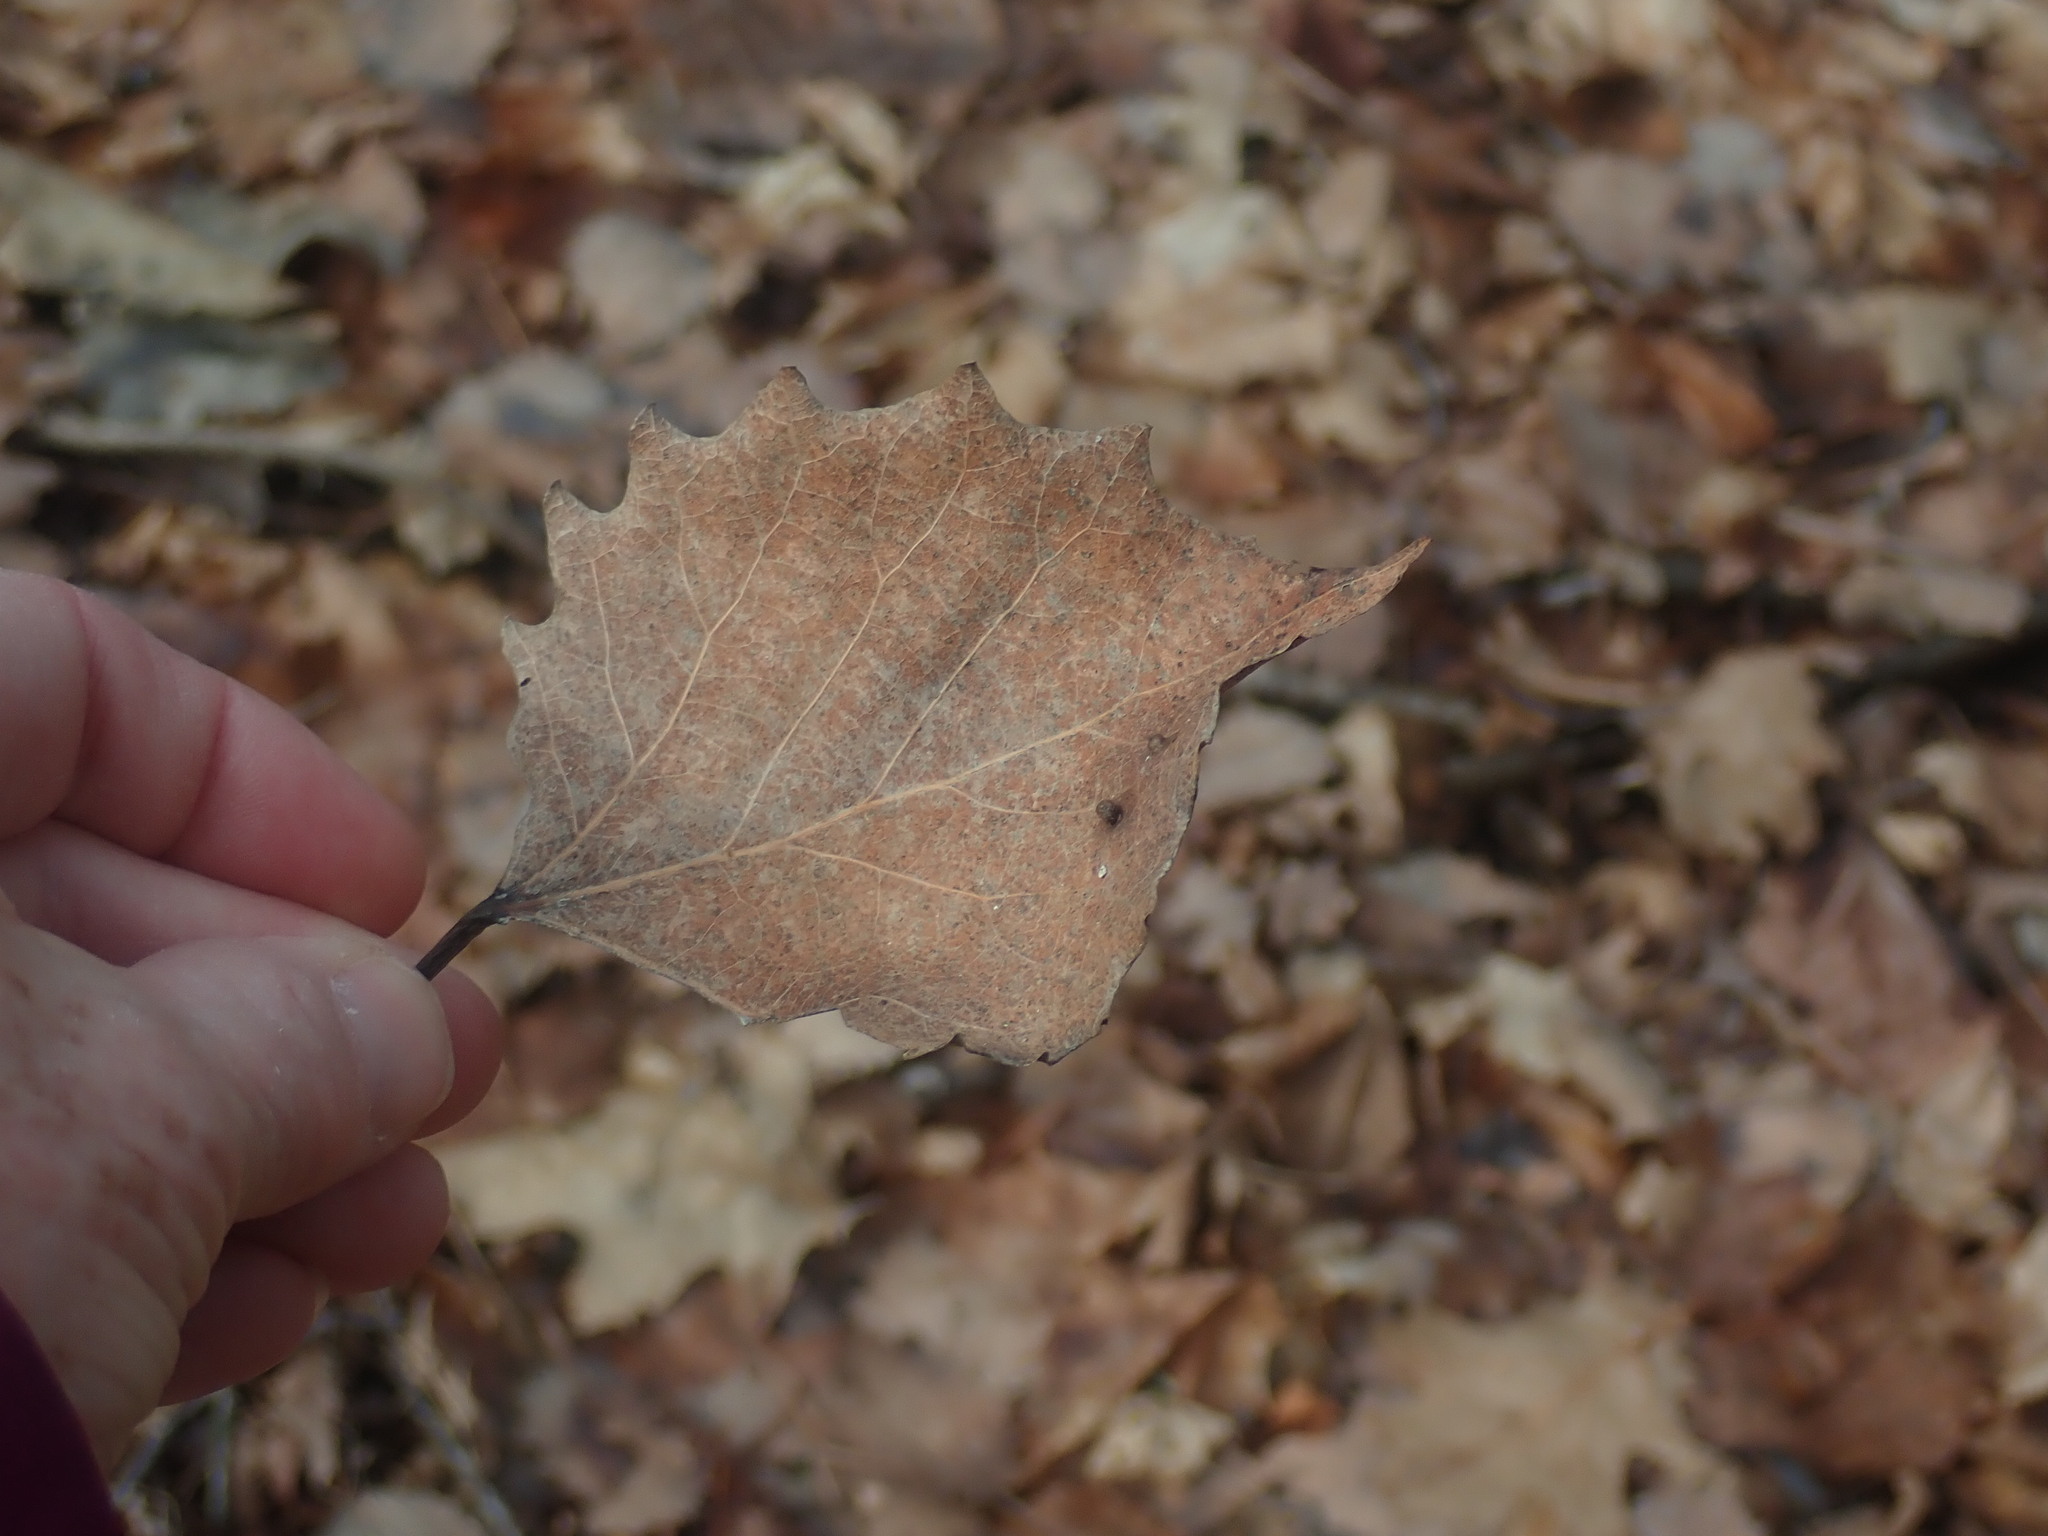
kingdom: Plantae
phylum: Tracheophyta
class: Magnoliopsida
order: Malpighiales
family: Salicaceae
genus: Populus
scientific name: Populus grandidentata
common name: Bigtooth aspen
